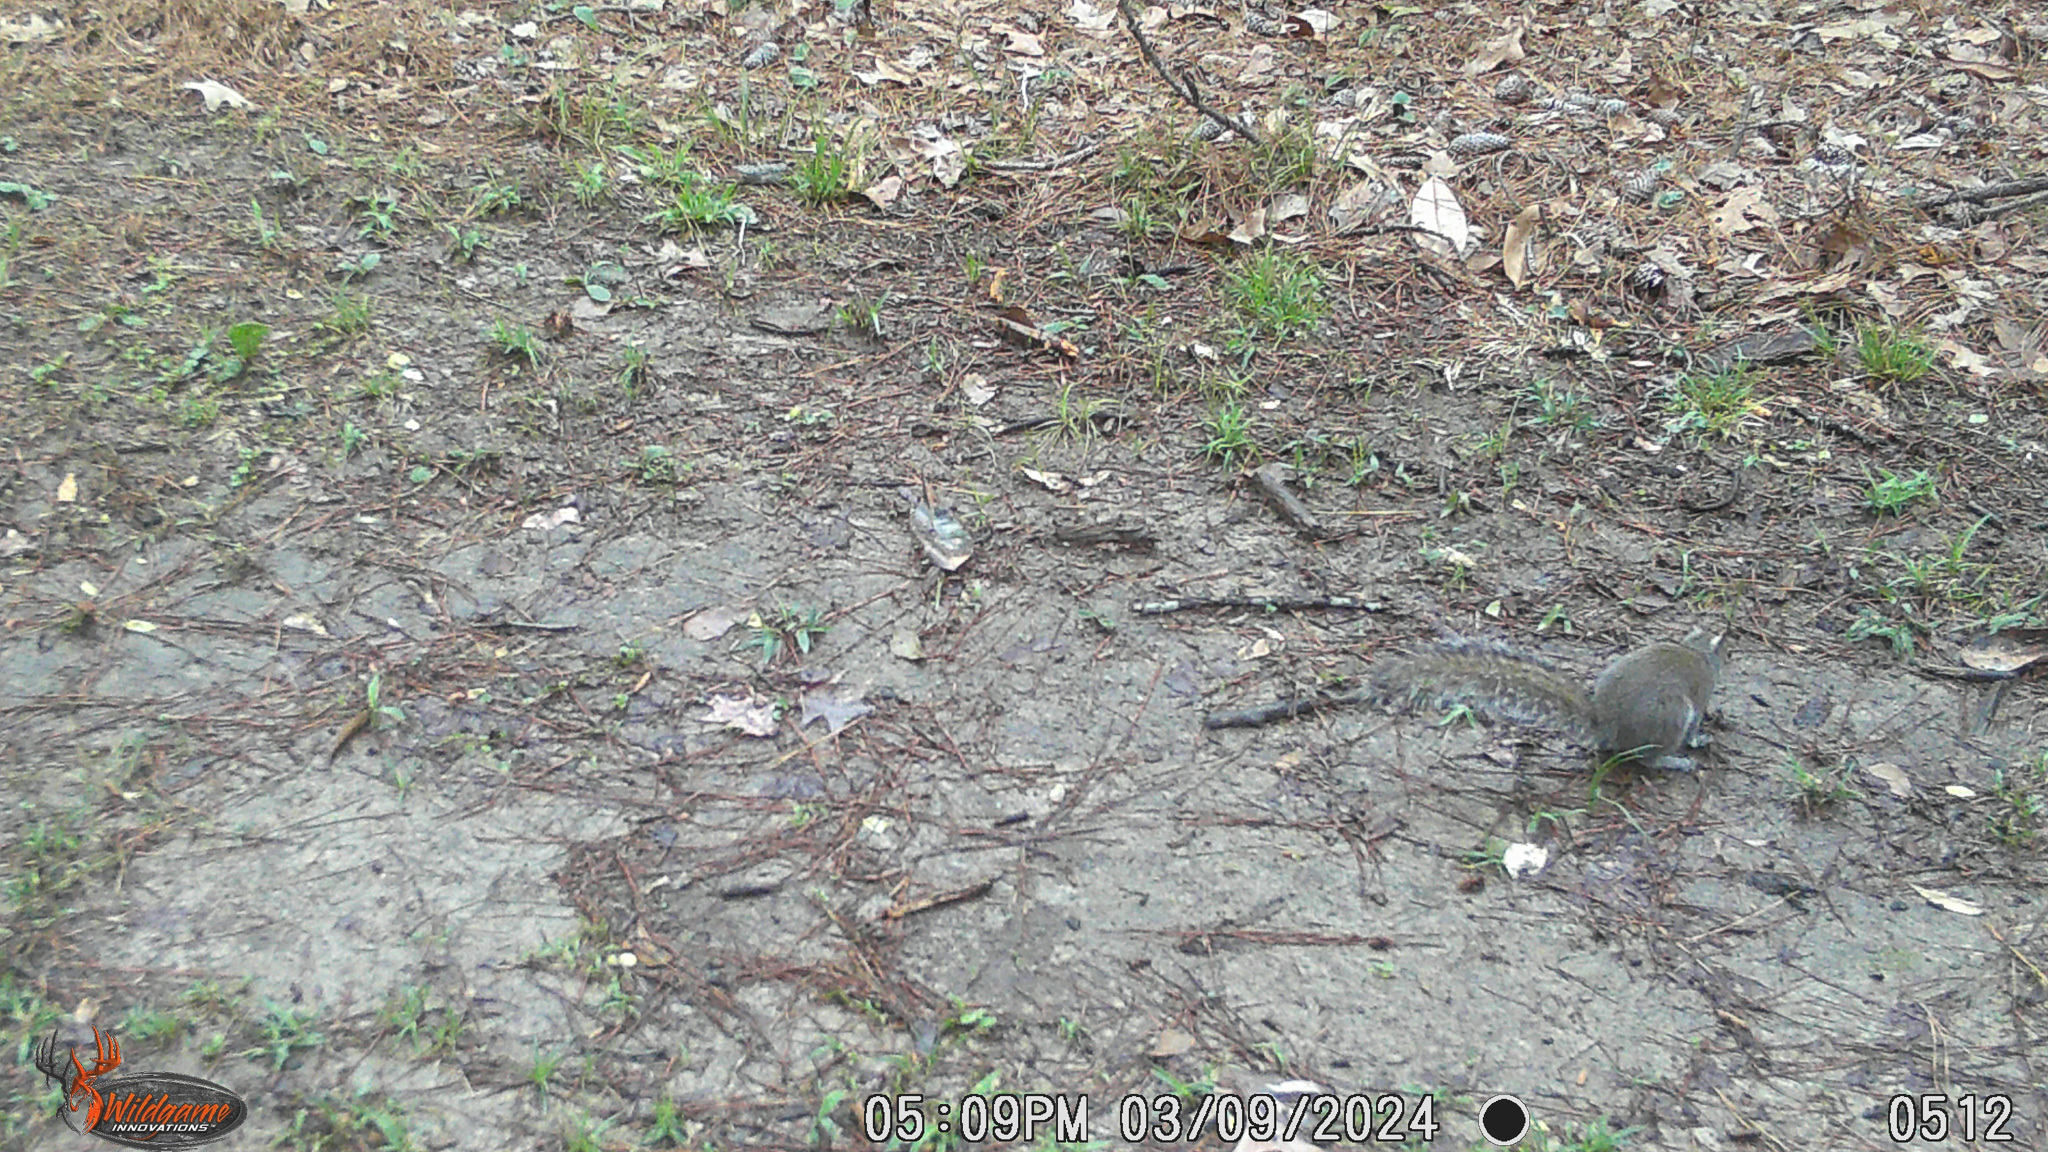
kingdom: Animalia
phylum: Chordata
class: Mammalia
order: Rodentia
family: Sciuridae
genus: Sciurus
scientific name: Sciurus carolinensis
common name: Eastern gray squirrel
